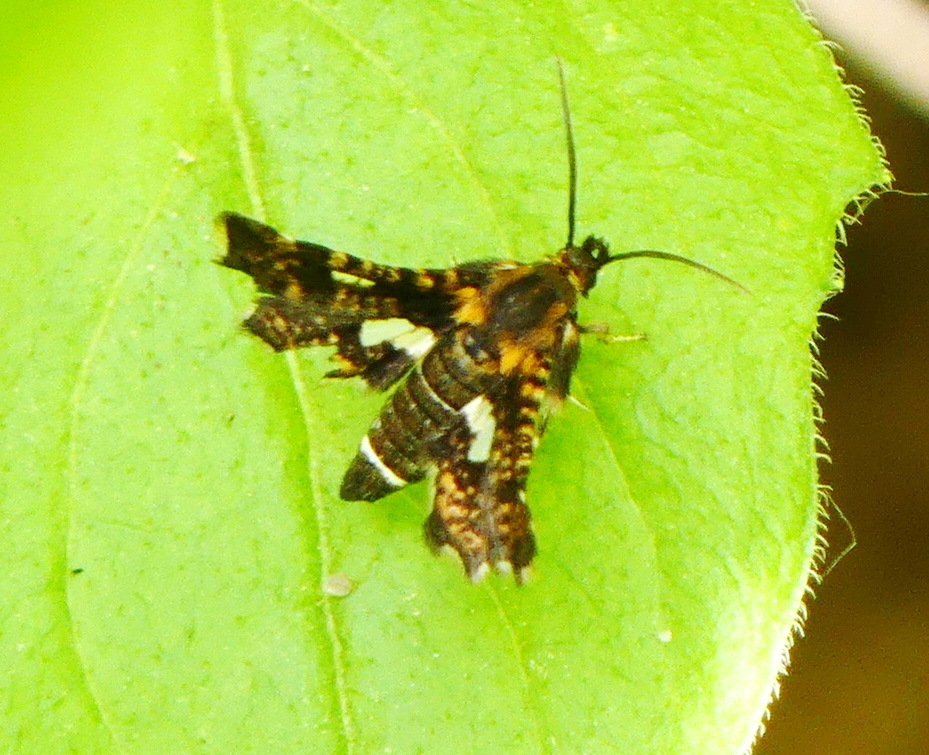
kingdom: Animalia
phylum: Arthropoda
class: Insecta
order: Lepidoptera
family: Thyrididae
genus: Thyris
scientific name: Thyris maculata
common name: Spotted thyris moth
